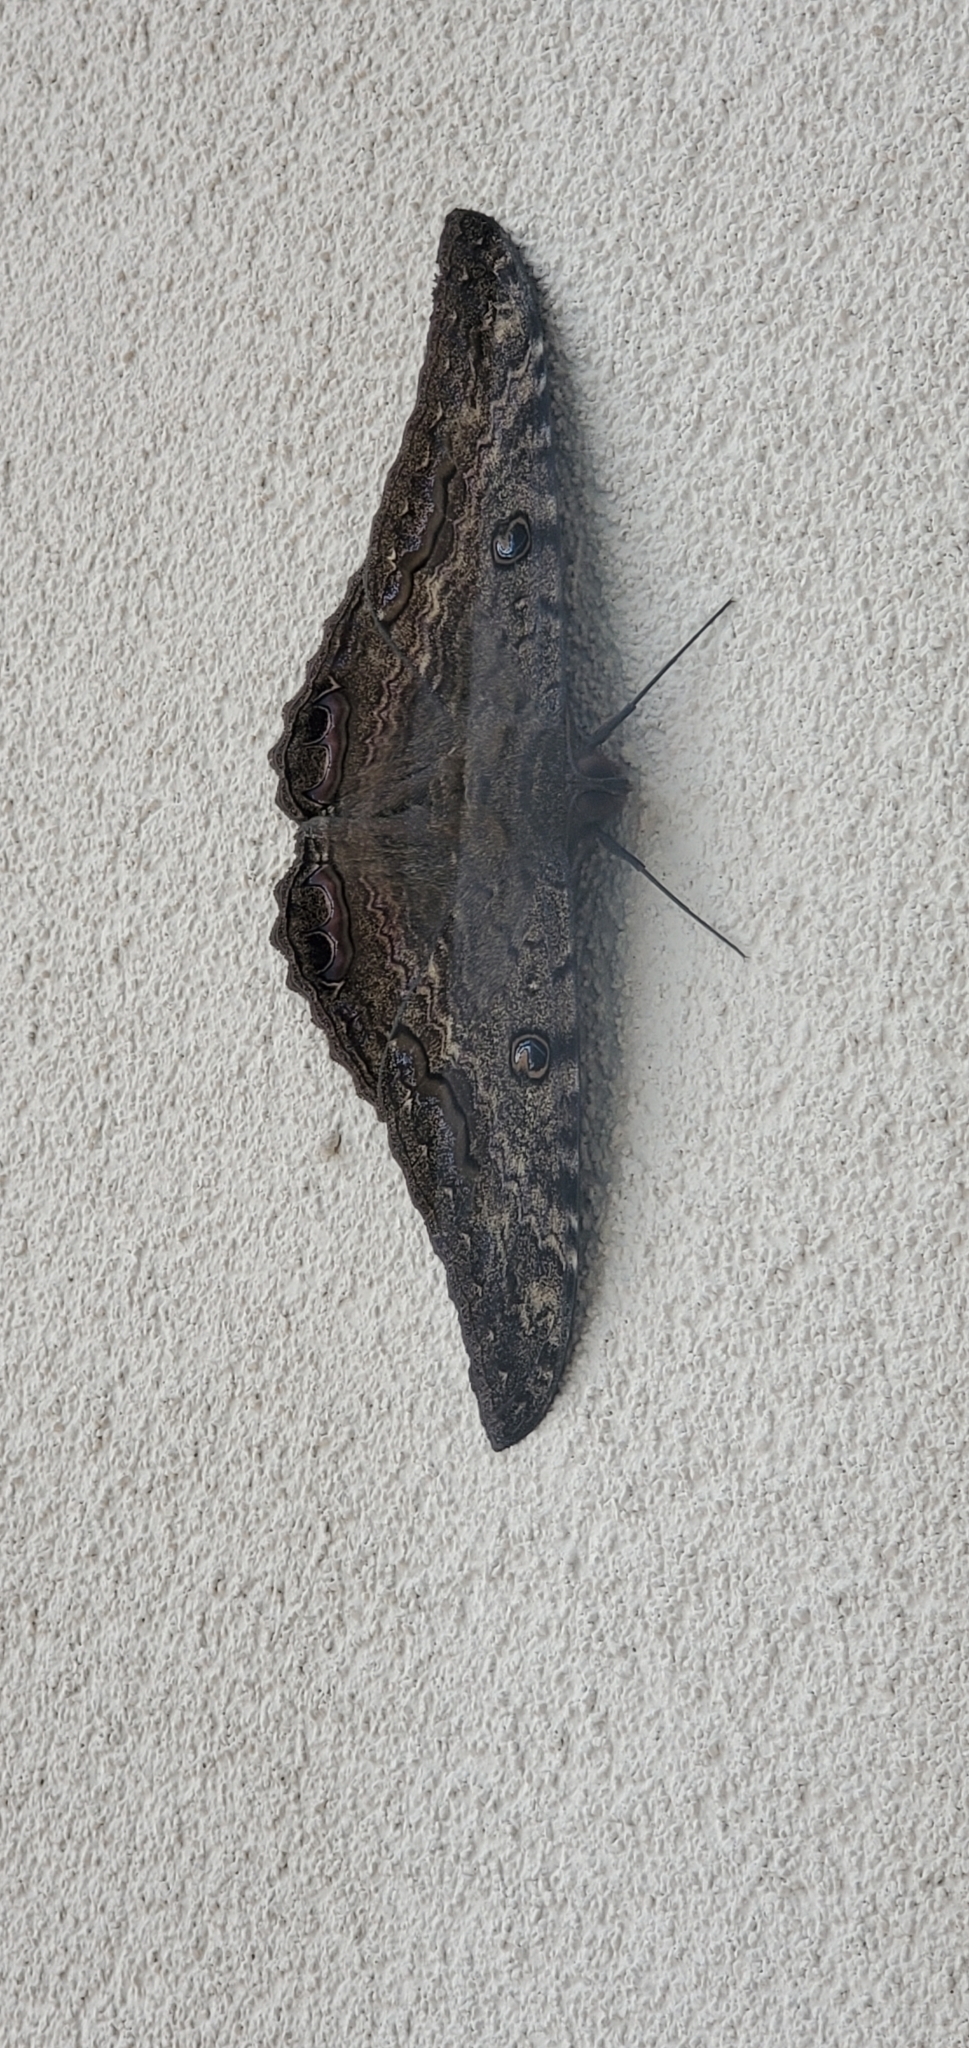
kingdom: Animalia
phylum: Arthropoda
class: Insecta
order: Lepidoptera
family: Erebidae
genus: Ascalapha
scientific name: Ascalapha odorata
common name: Black witch
